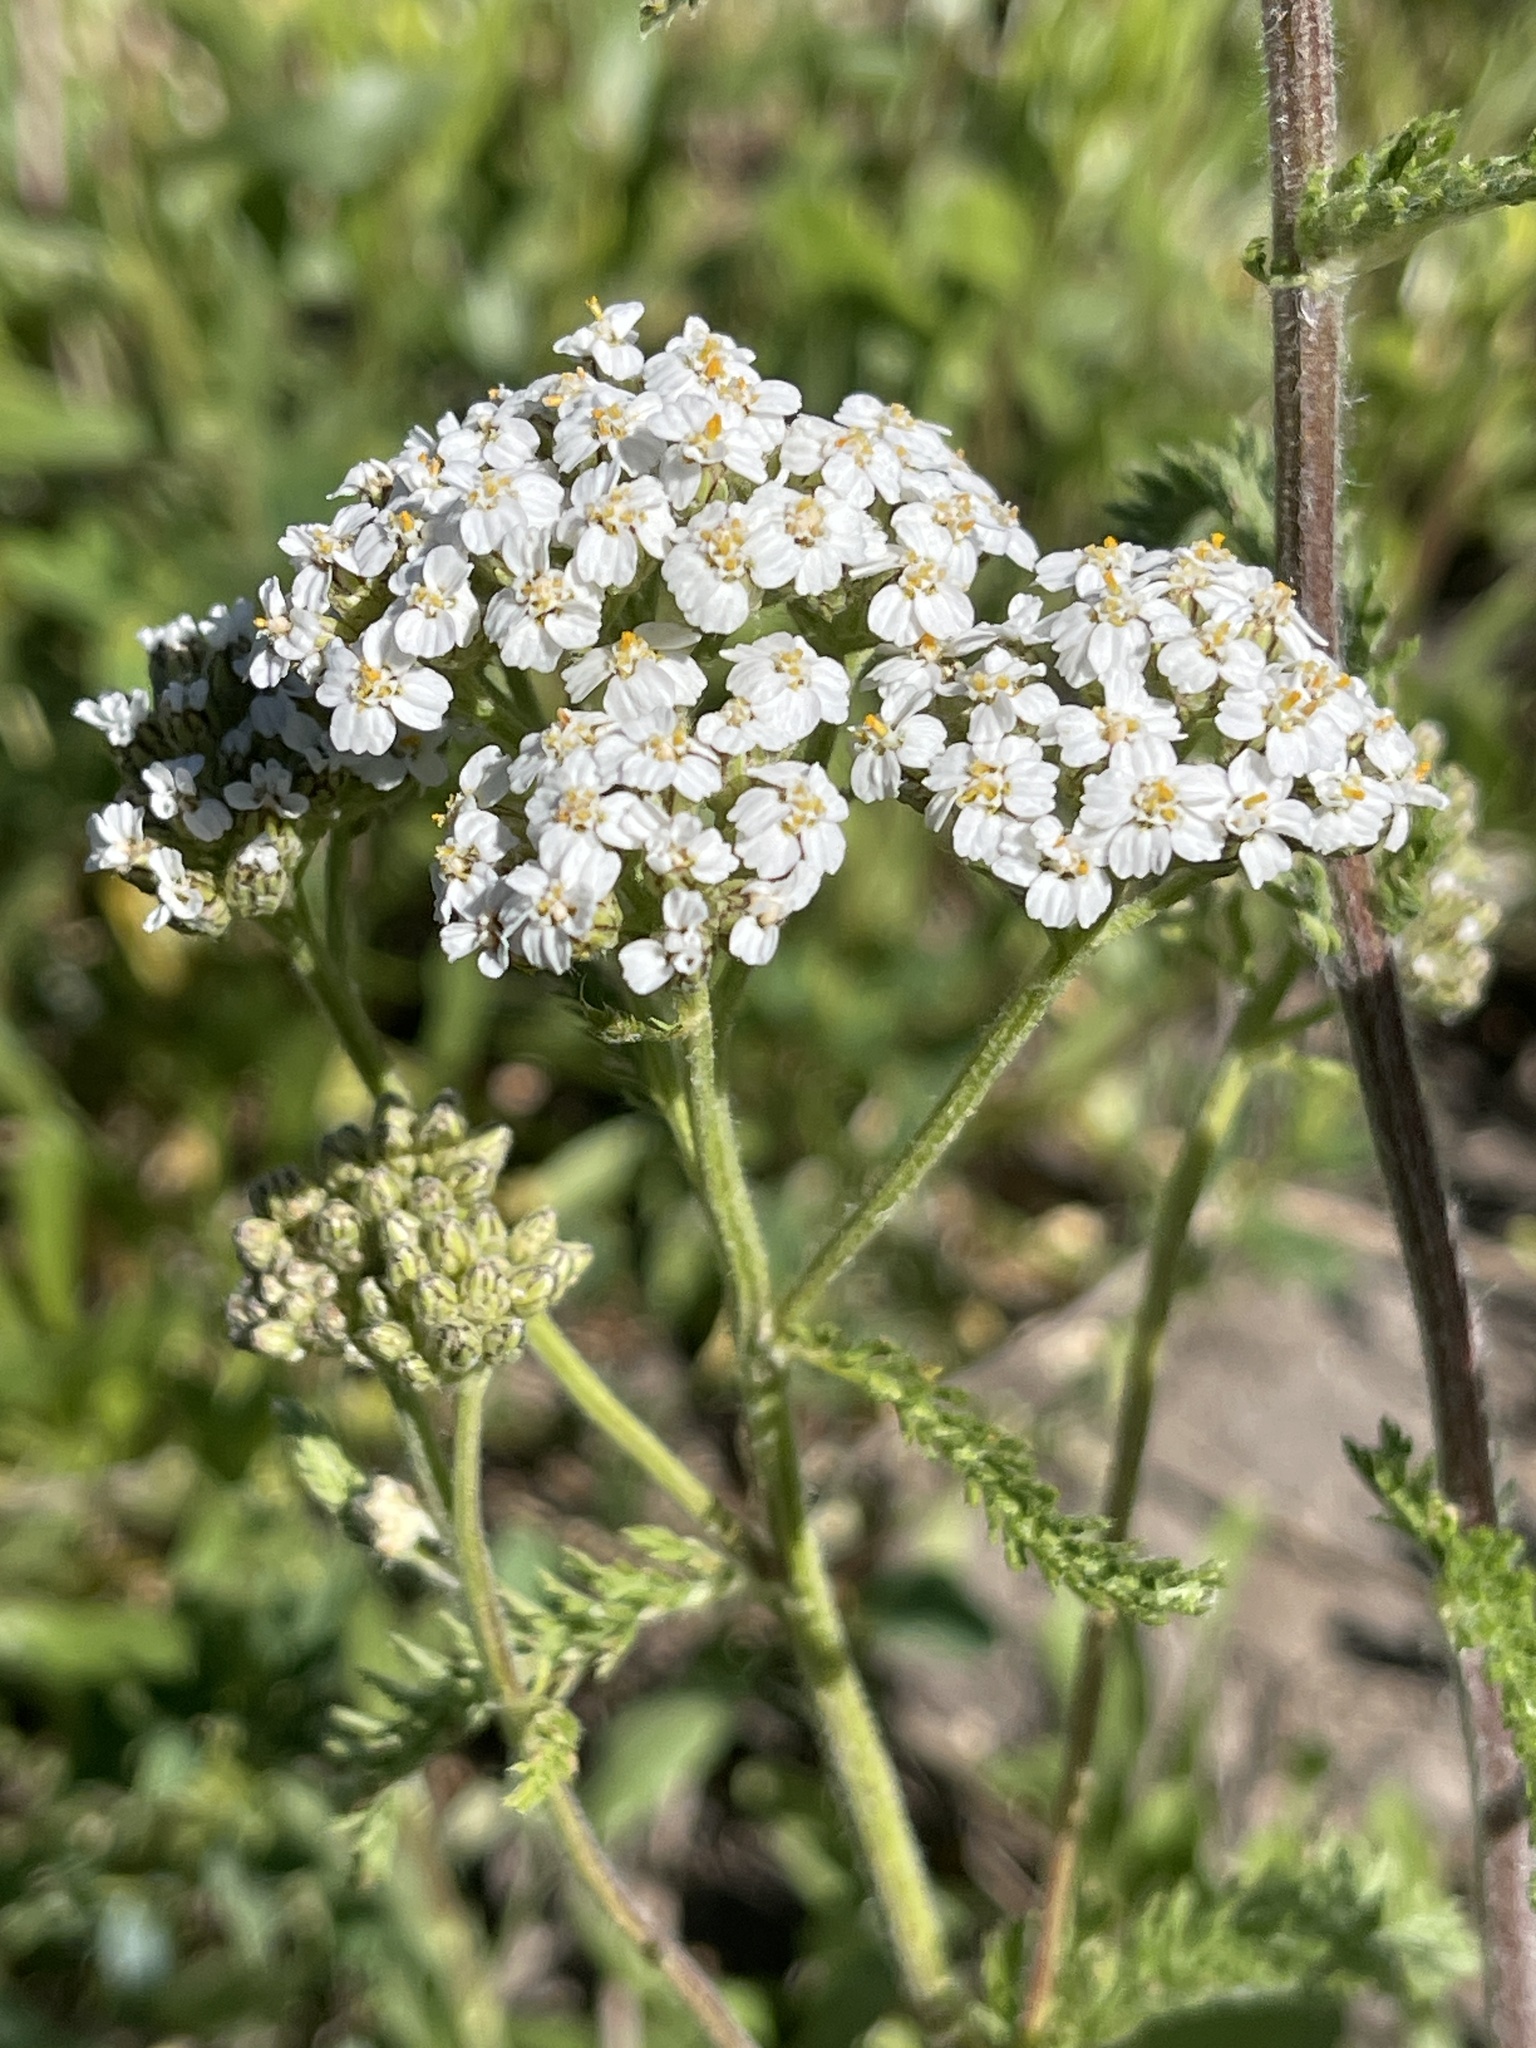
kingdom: Plantae
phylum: Tracheophyta
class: Magnoliopsida
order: Asterales
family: Asteraceae
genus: Achillea
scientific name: Achillea millefolium
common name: Yarrow
